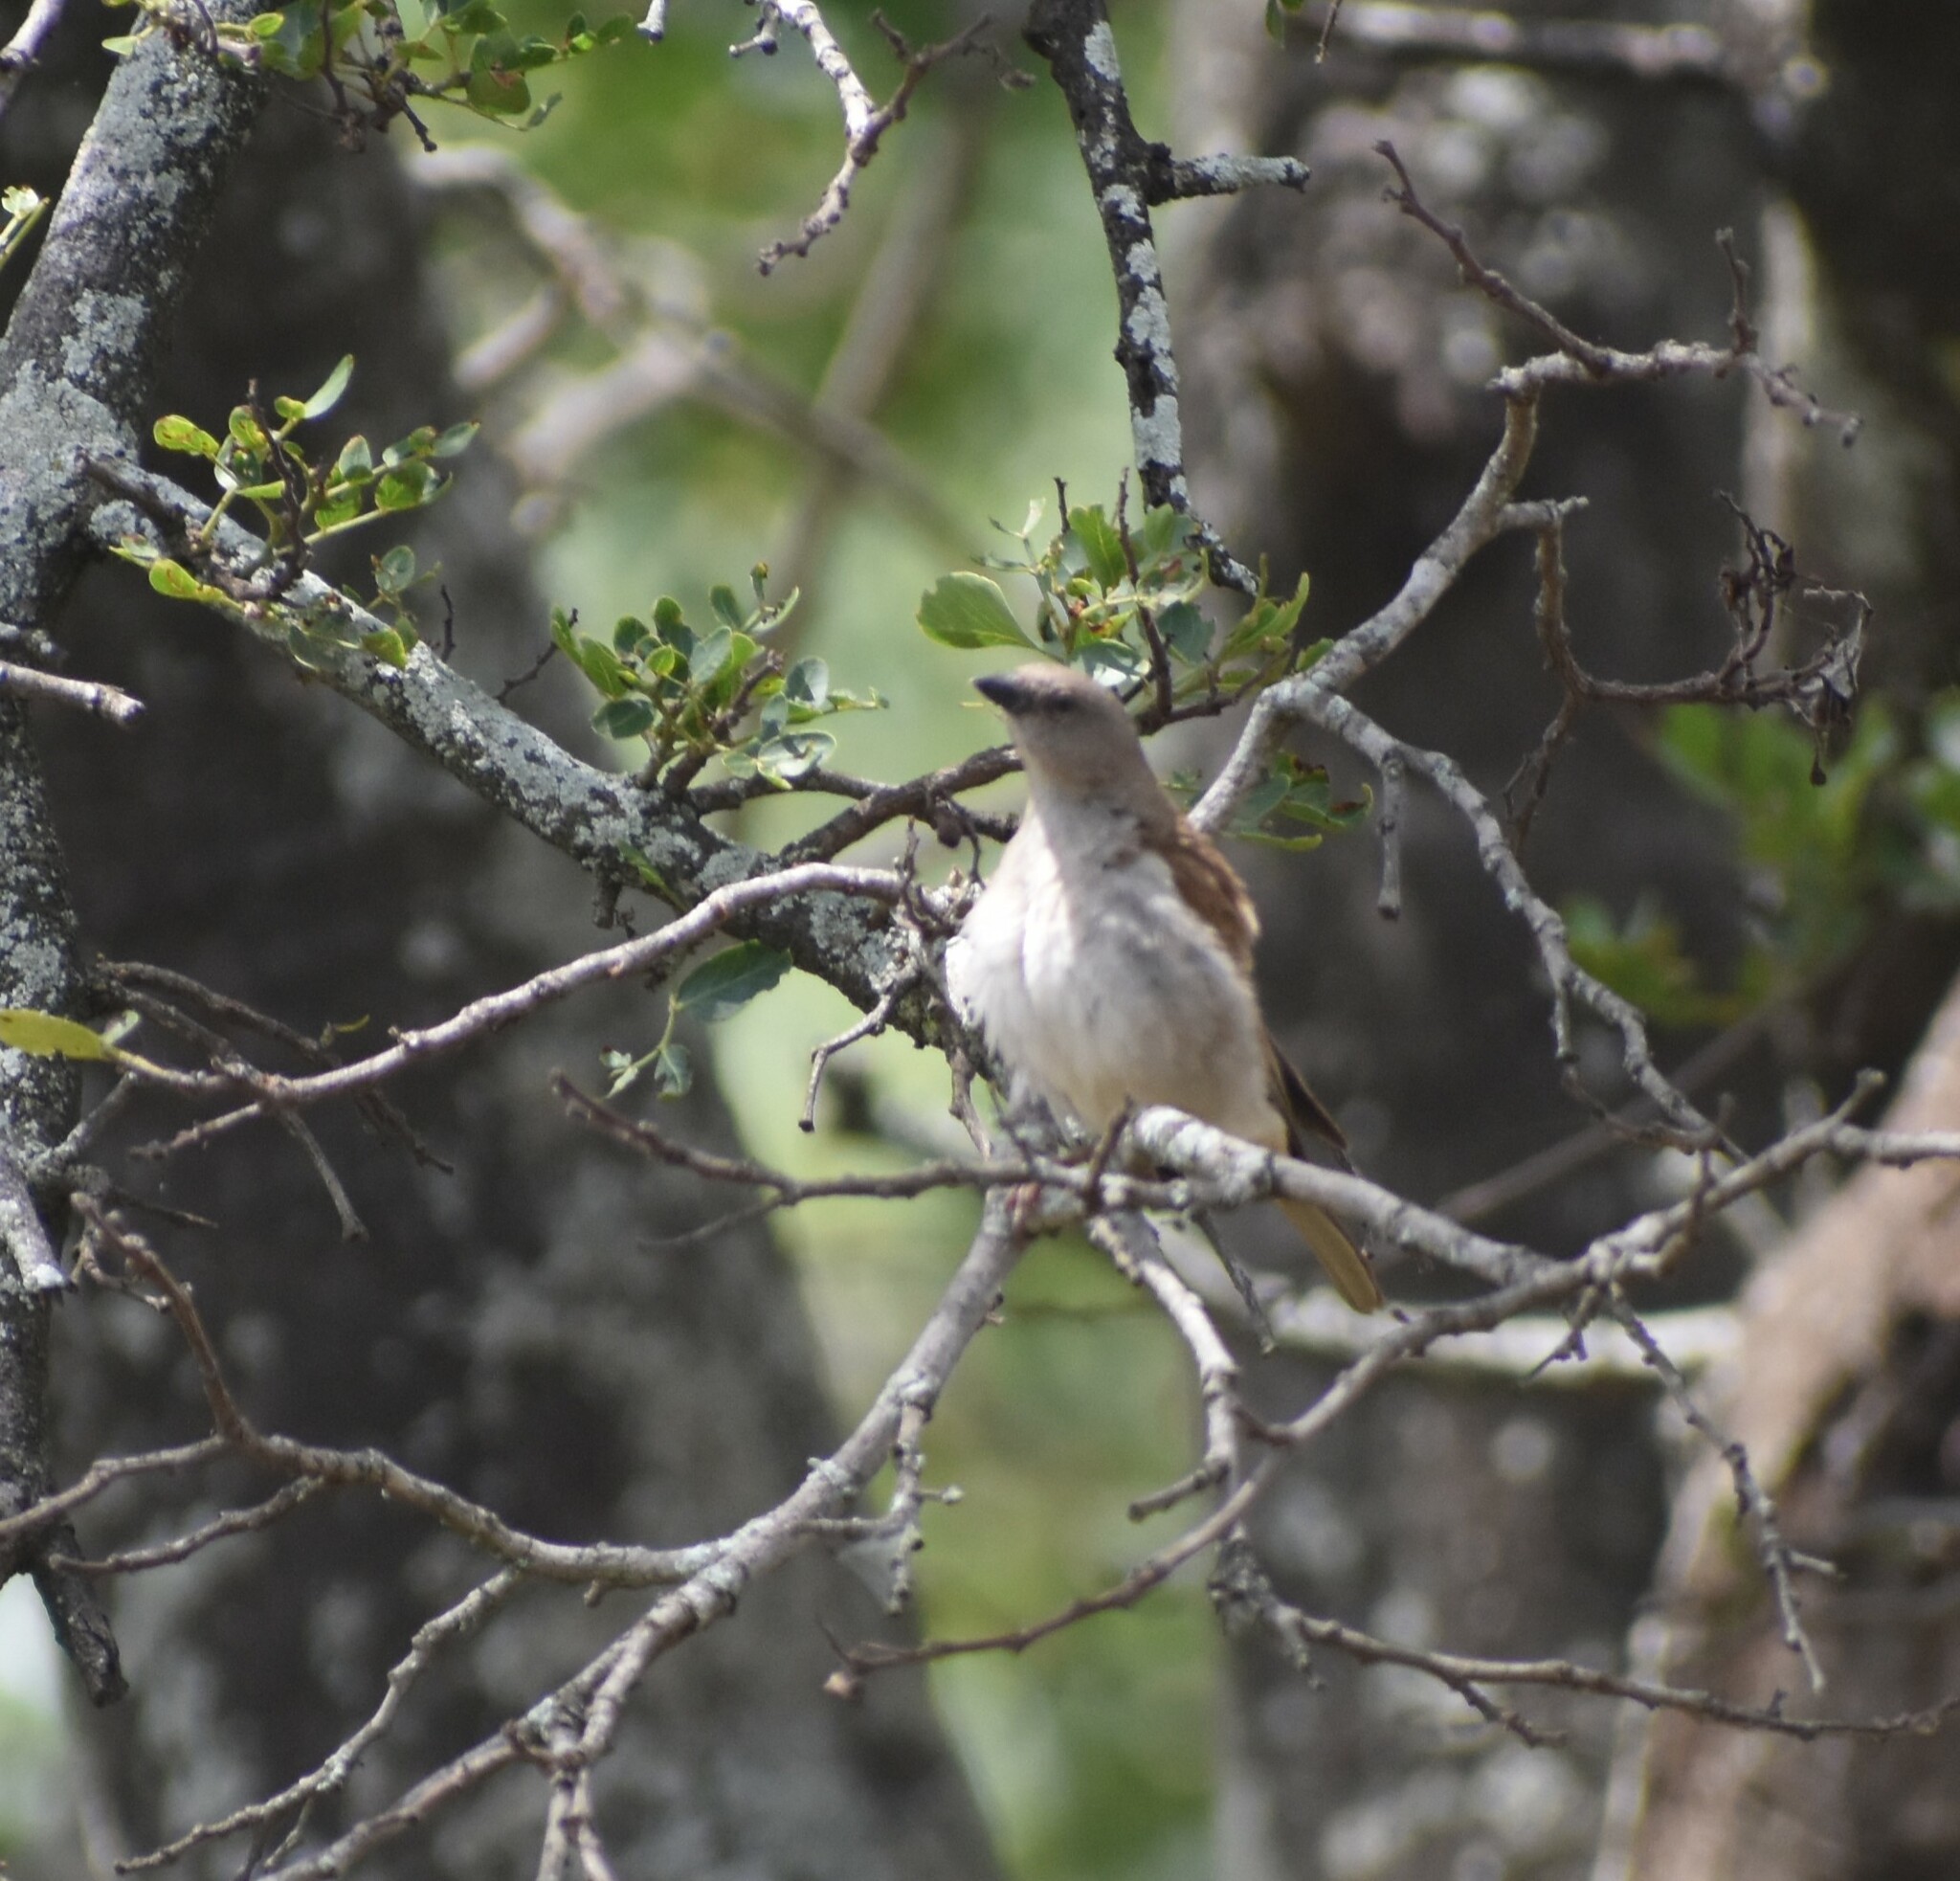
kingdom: Animalia
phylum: Chordata
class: Aves
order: Passeriformes
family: Passeridae
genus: Passer
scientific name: Passer diffusus
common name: Southern grey-headed sparrow
